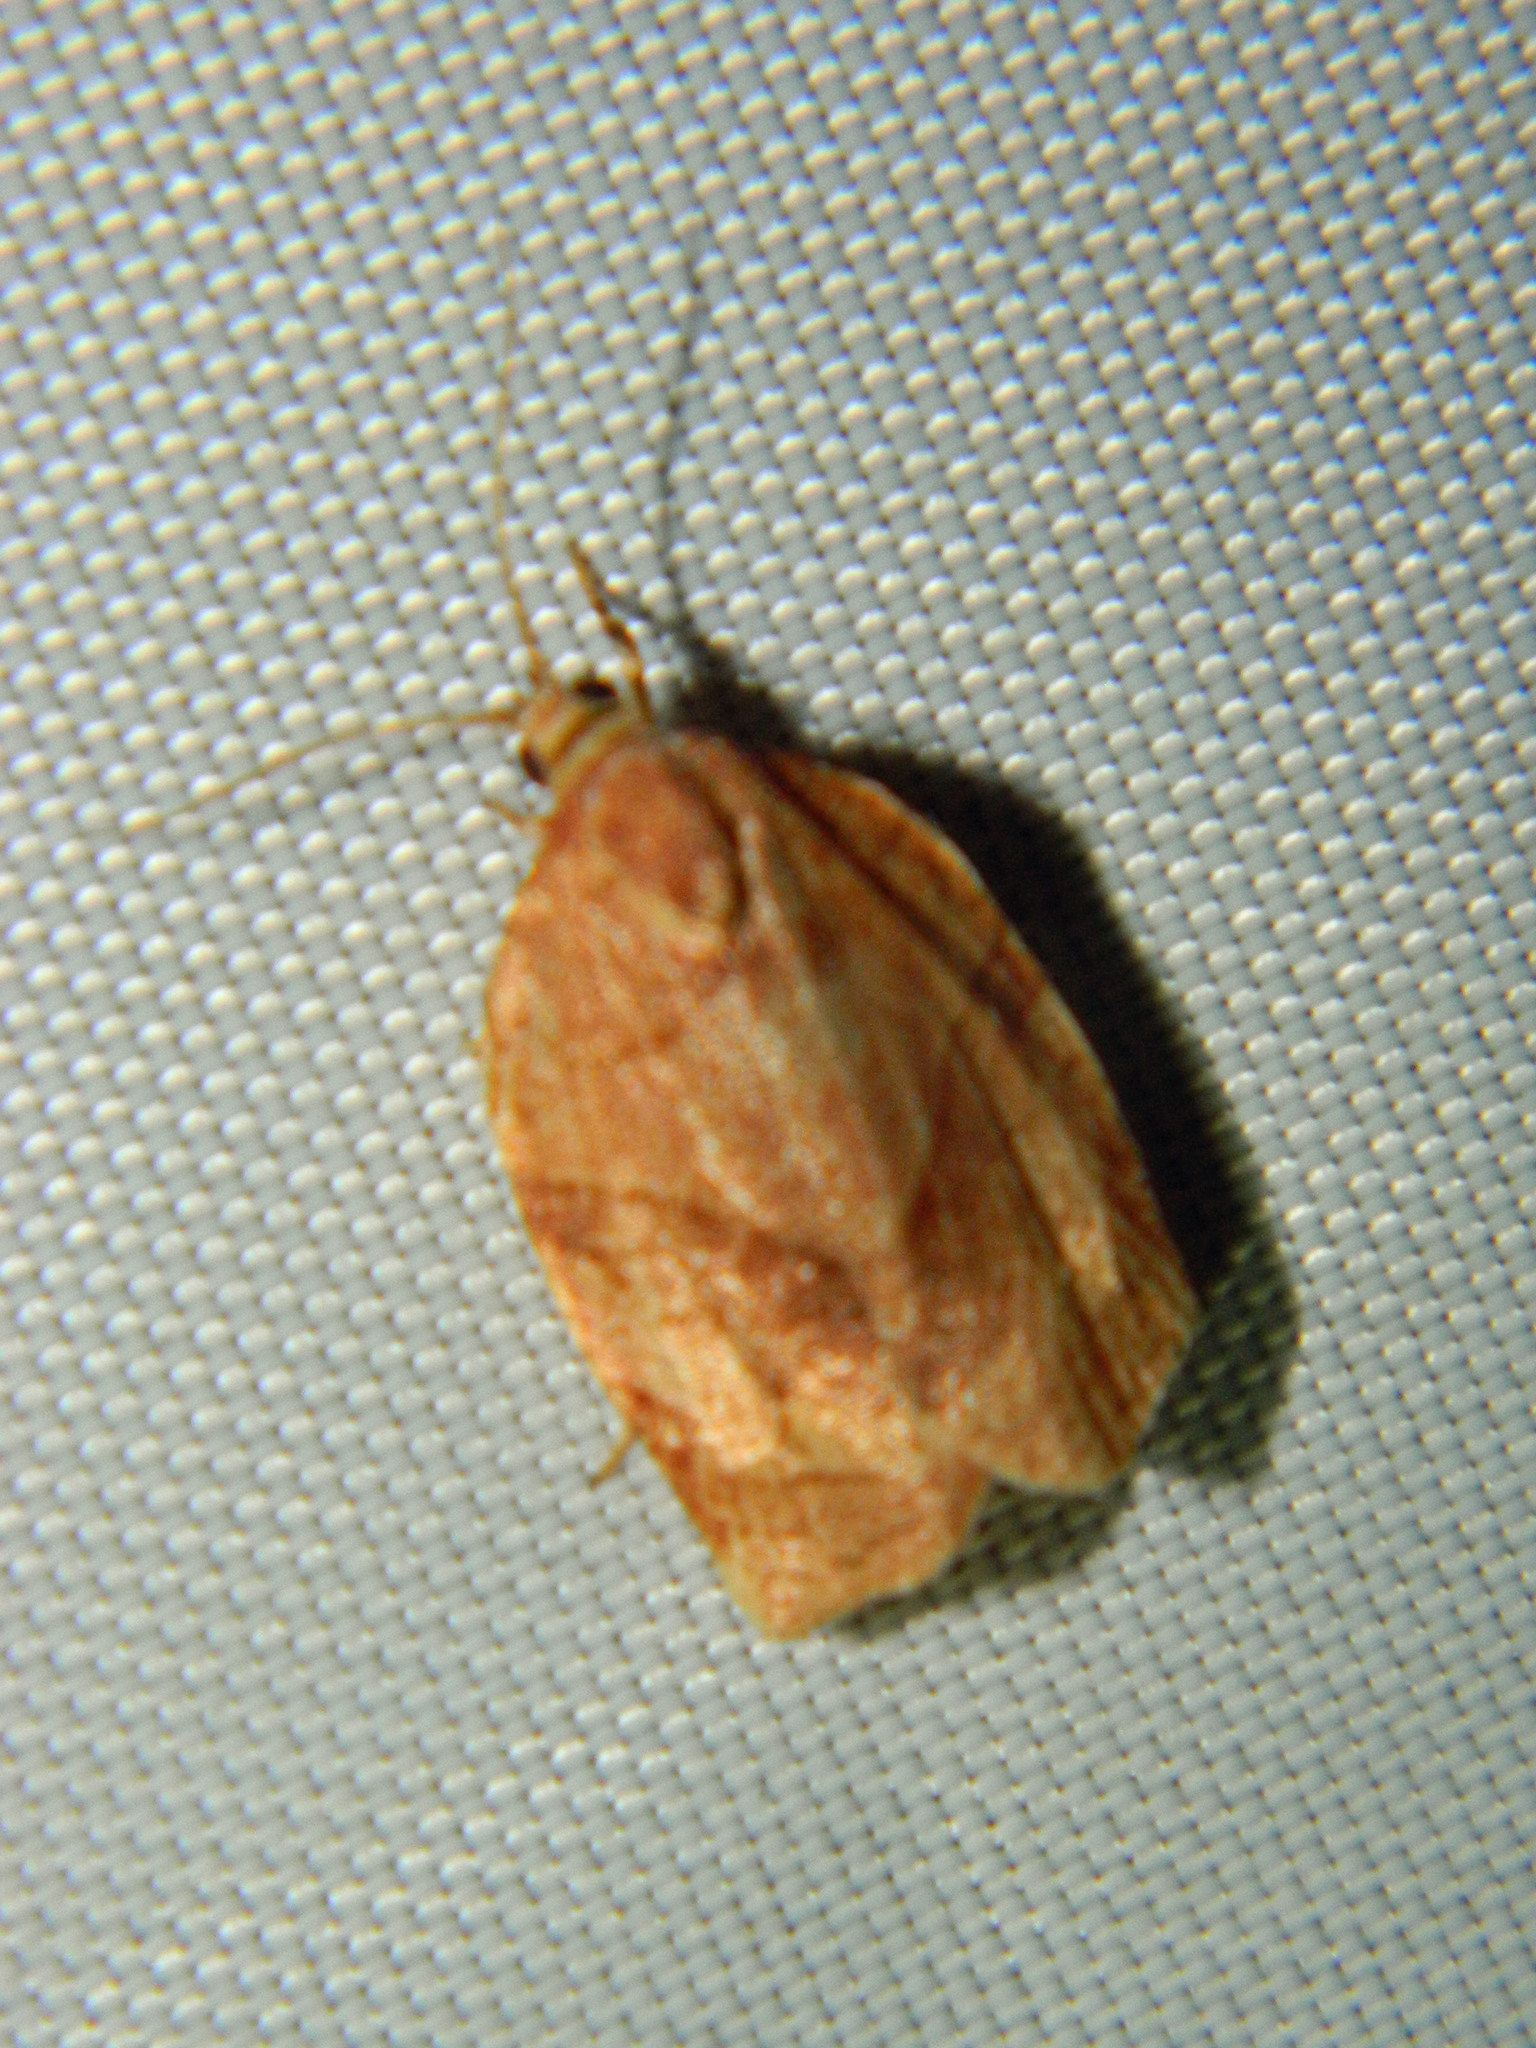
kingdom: Animalia
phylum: Arthropoda
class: Insecta
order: Lepidoptera
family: Tortricidae
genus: Choristoneura
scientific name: Choristoneura rosaceana
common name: Oblique-banded leafroller moth
